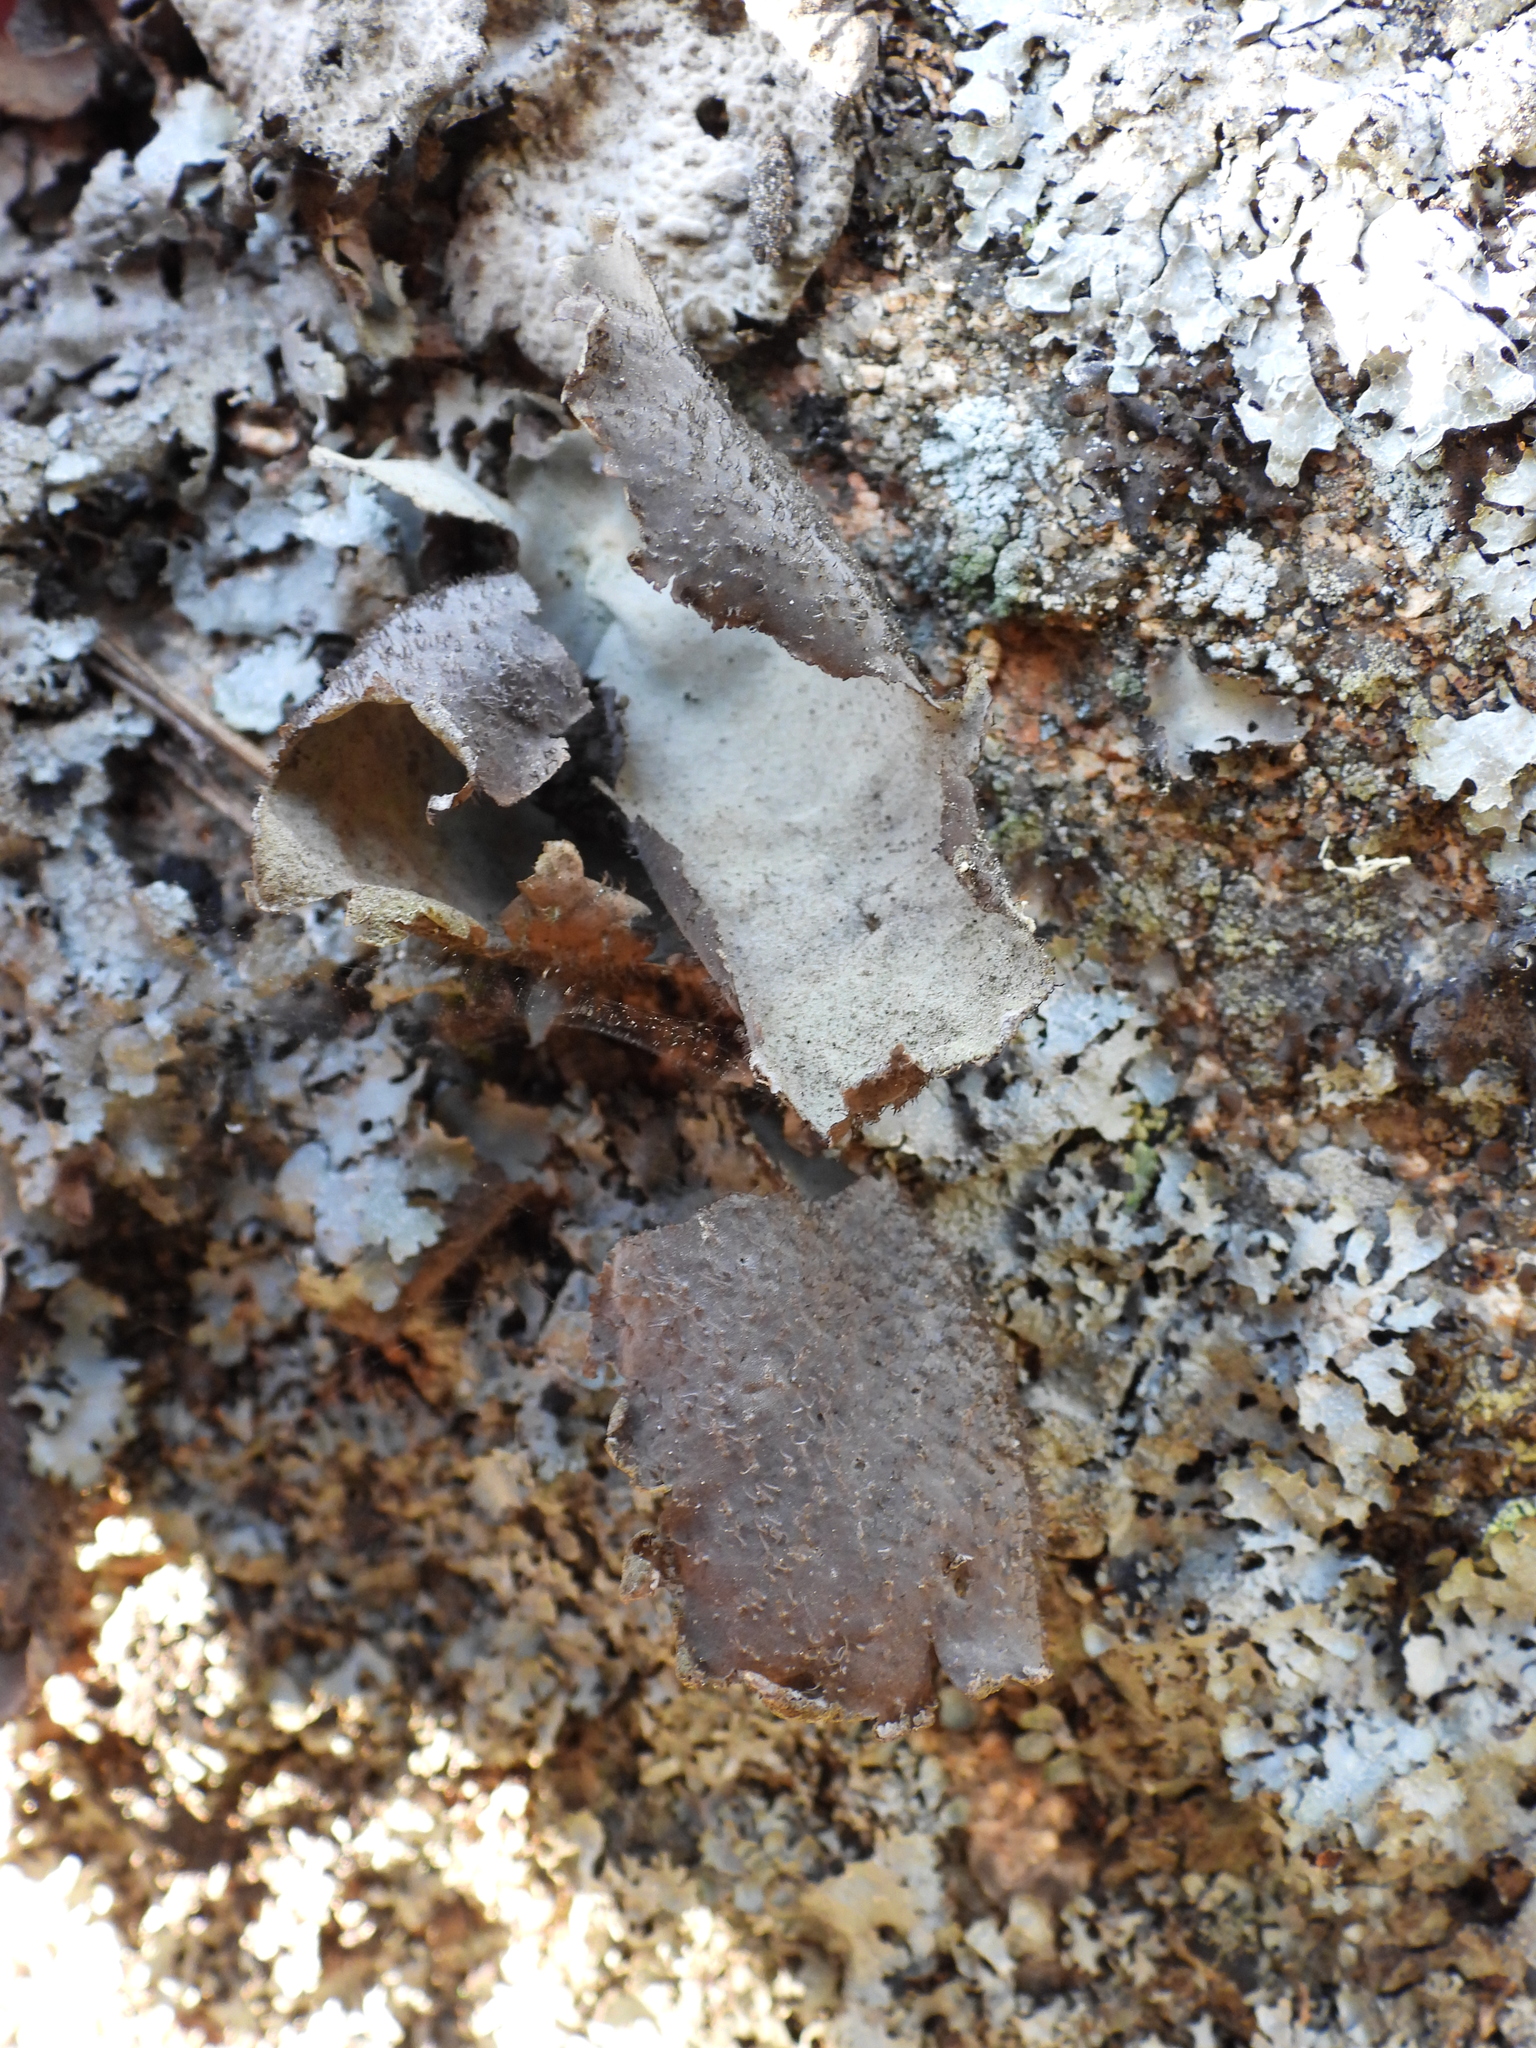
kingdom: Fungi
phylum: Ascomycota
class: Lecanoromycetes
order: Umbilicariales
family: Umbilicariaceae
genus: Umbilicaria
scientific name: Umbilicaria vellea
